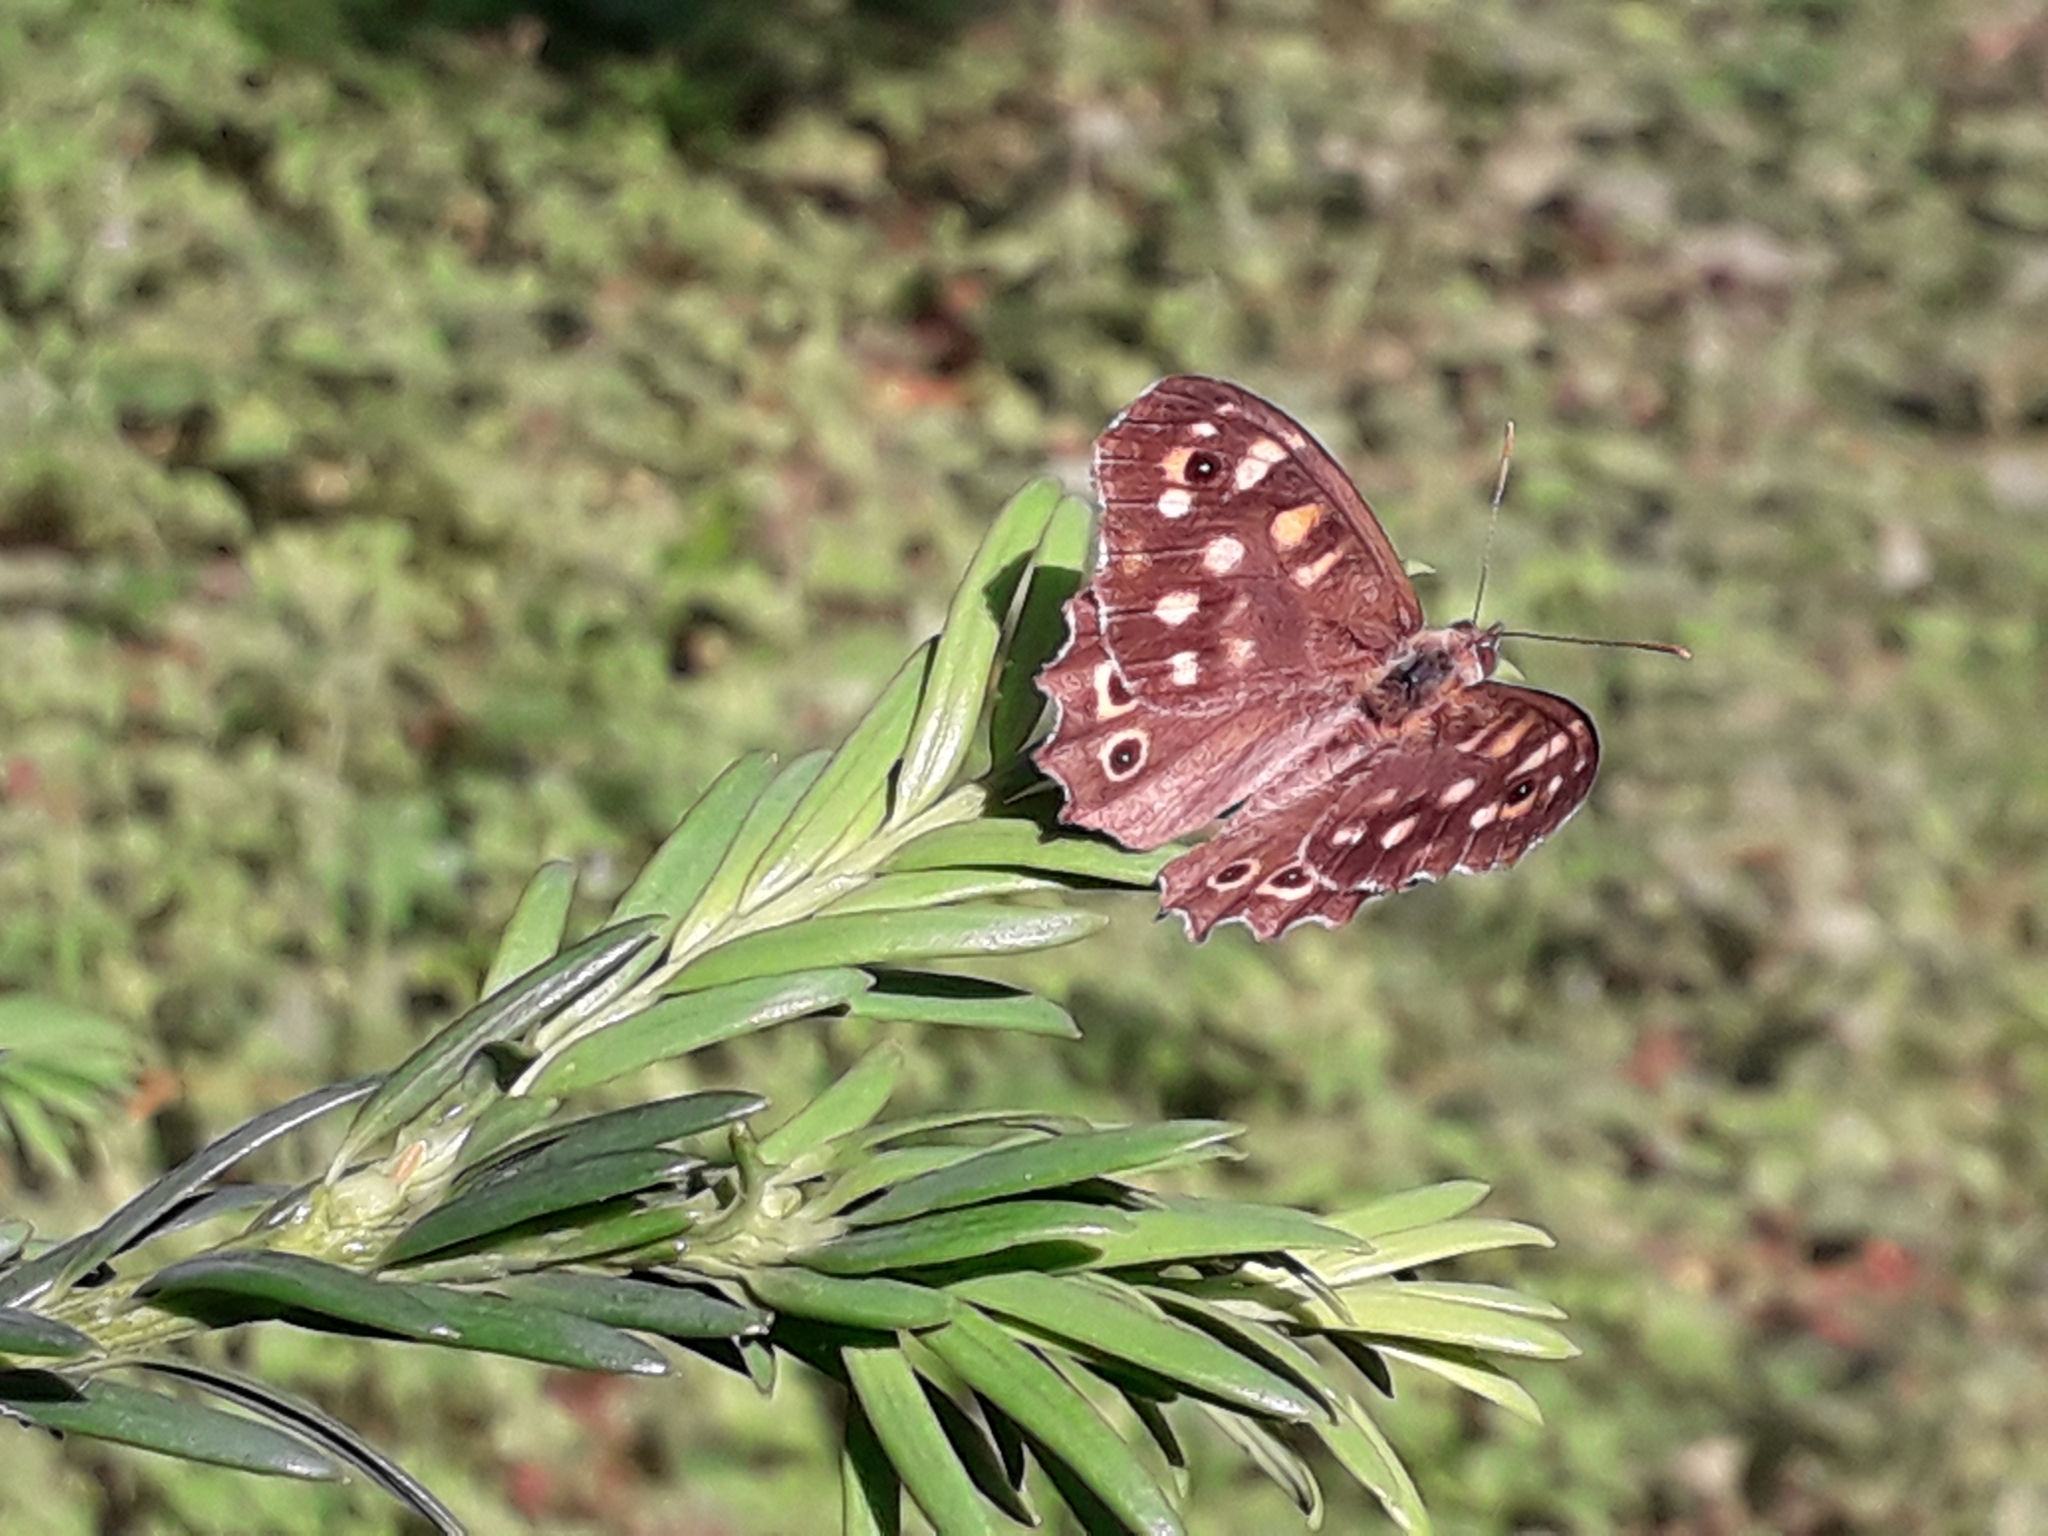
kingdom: Animalia
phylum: Arthropoda
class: Insecta
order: Lepidoptera
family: Nymphalidae
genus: Pararge
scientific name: Pararge aegeria
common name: Speckled wood
